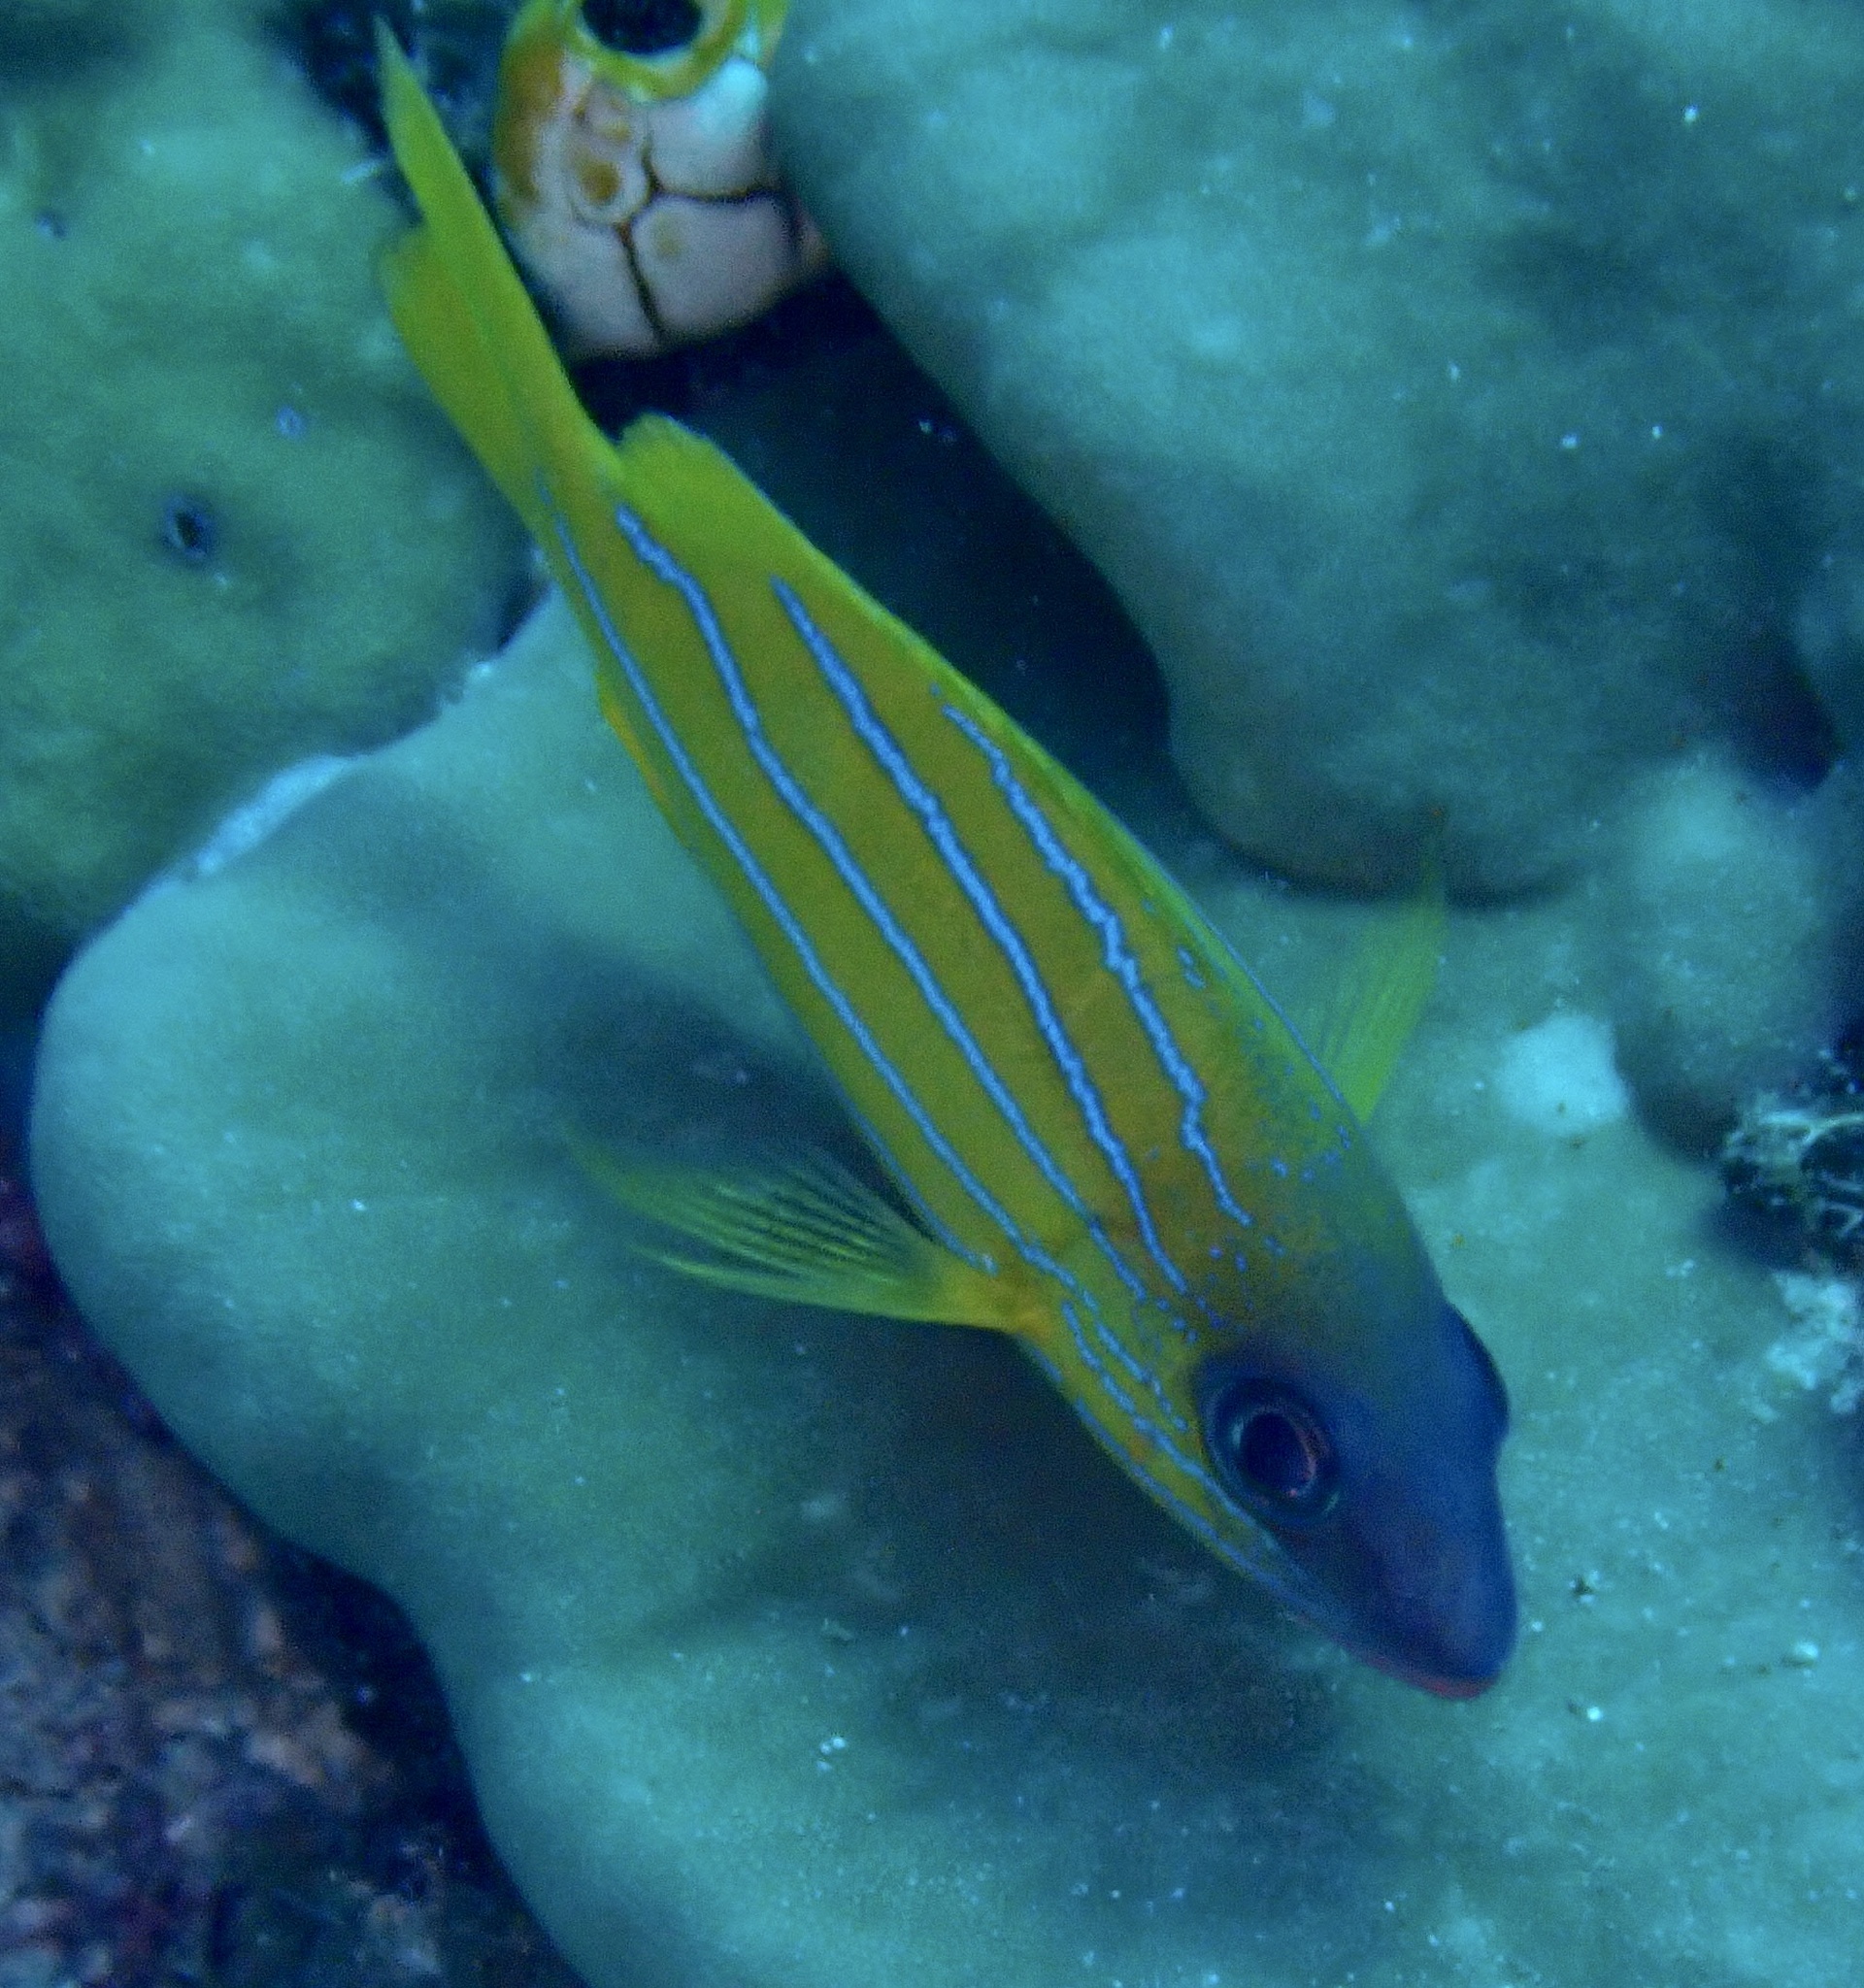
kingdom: Animalia
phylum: Chordata
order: Perciformes
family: Lutjanidae
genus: Lutjanus
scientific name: Lutjanus quinquelineatus
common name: Five-lined snapper
